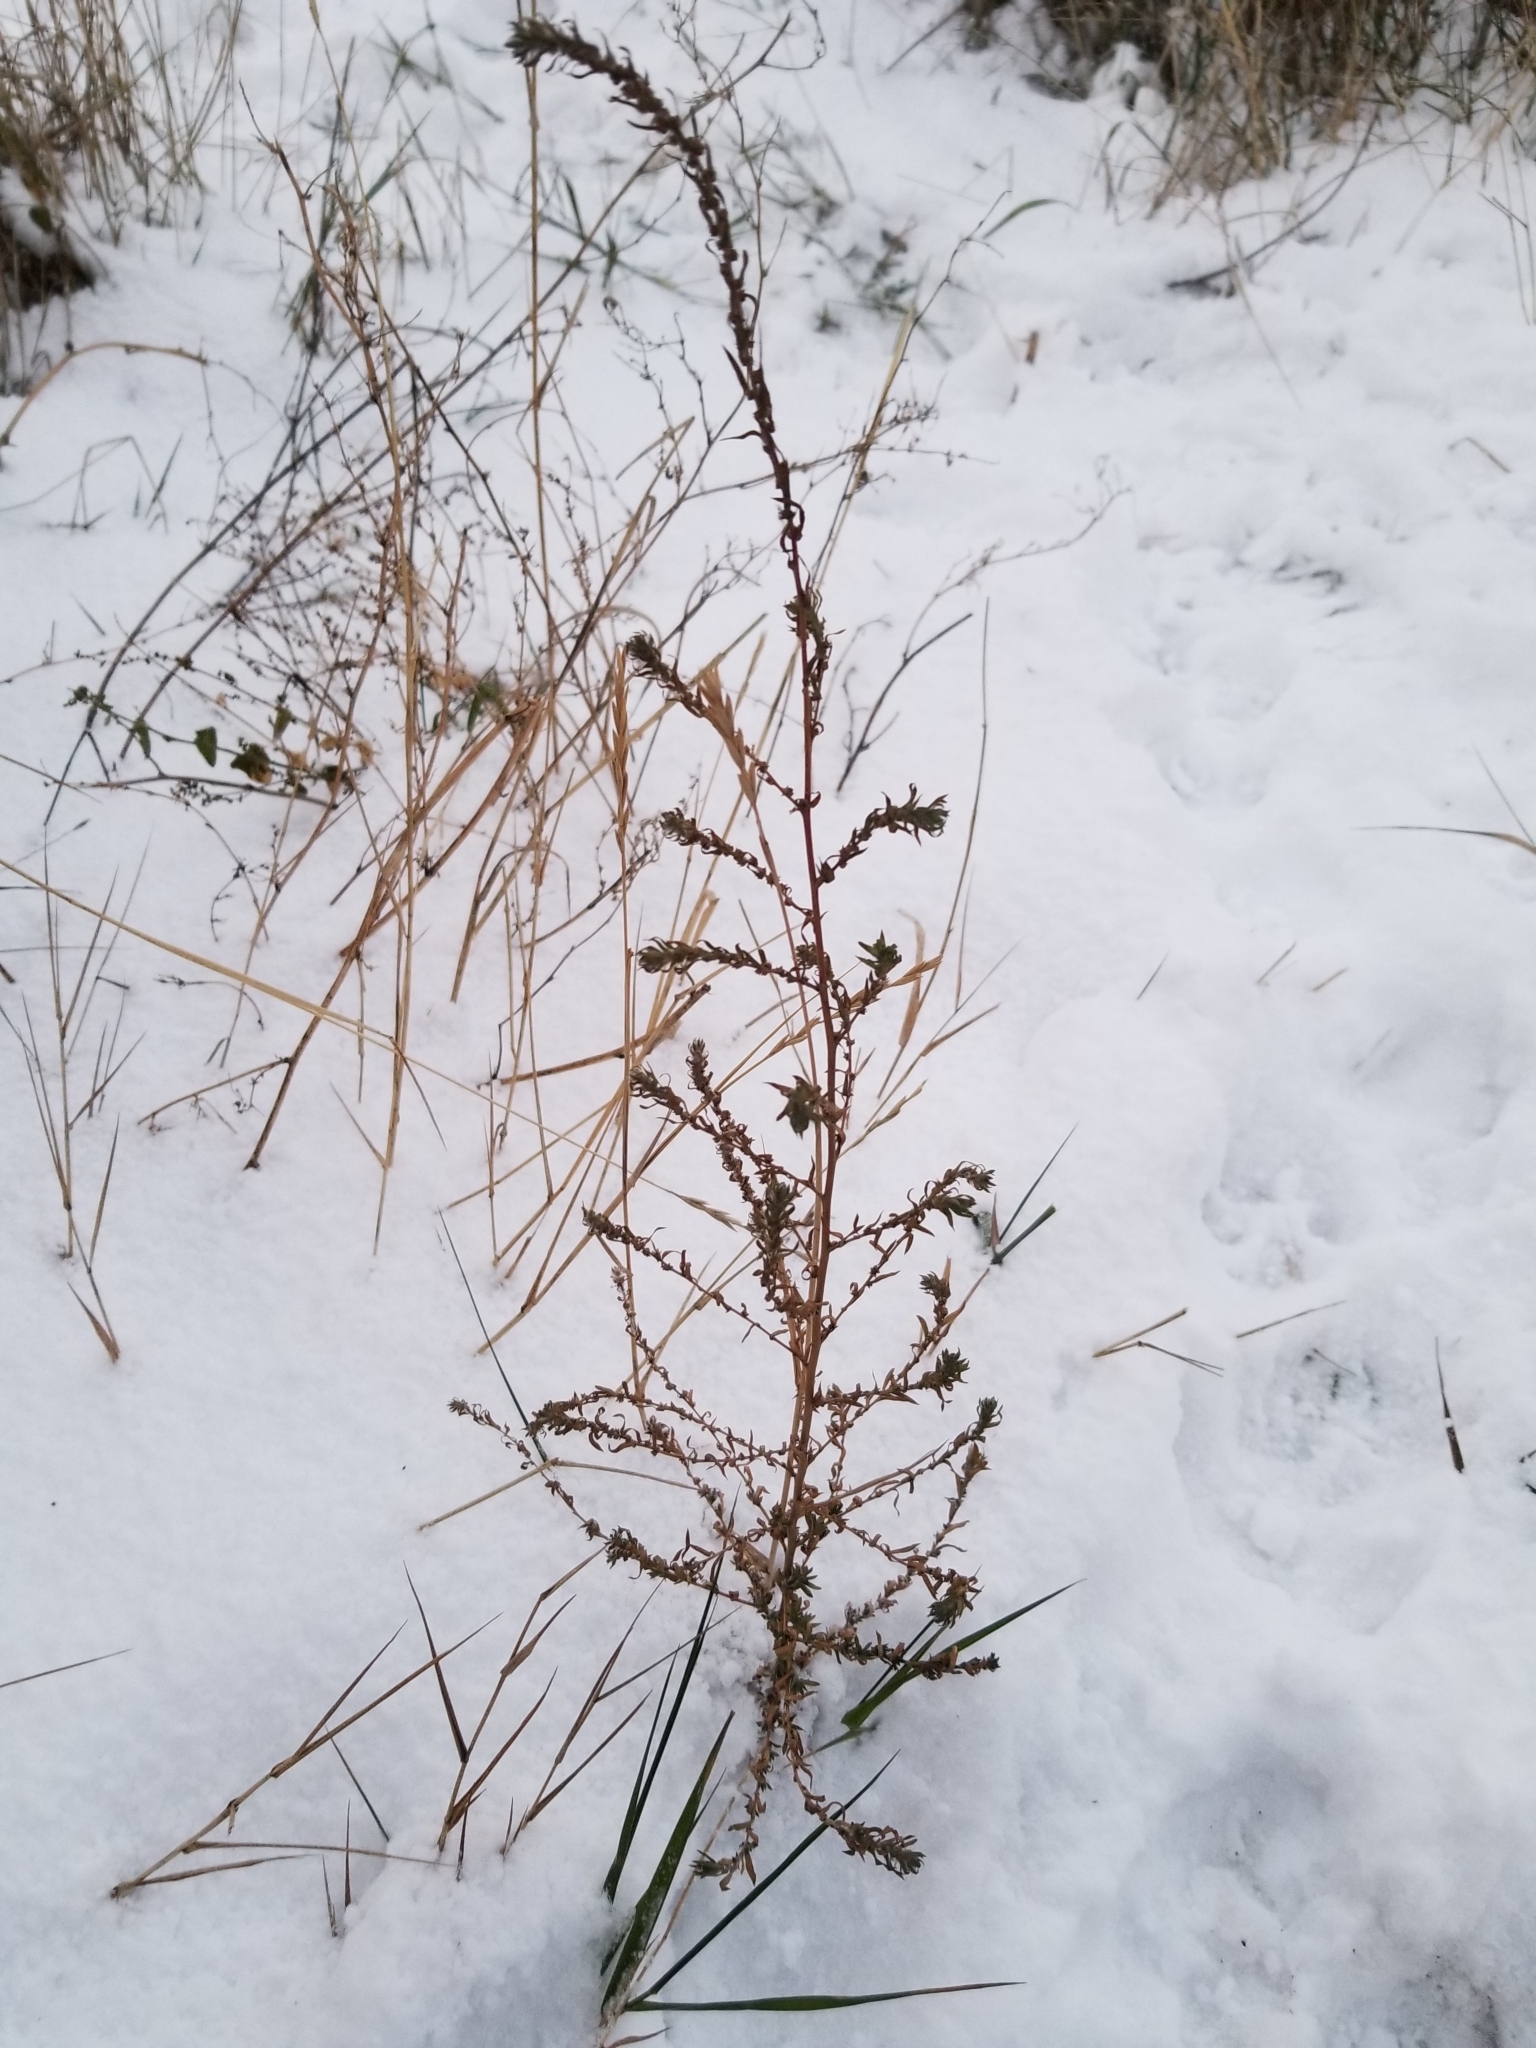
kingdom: Plantae
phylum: Tracheophyta
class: Magnoliopsida
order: Caryophyllales
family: Amaranthaceae
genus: Bassia
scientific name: Bassia scoparia
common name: Belvedere
